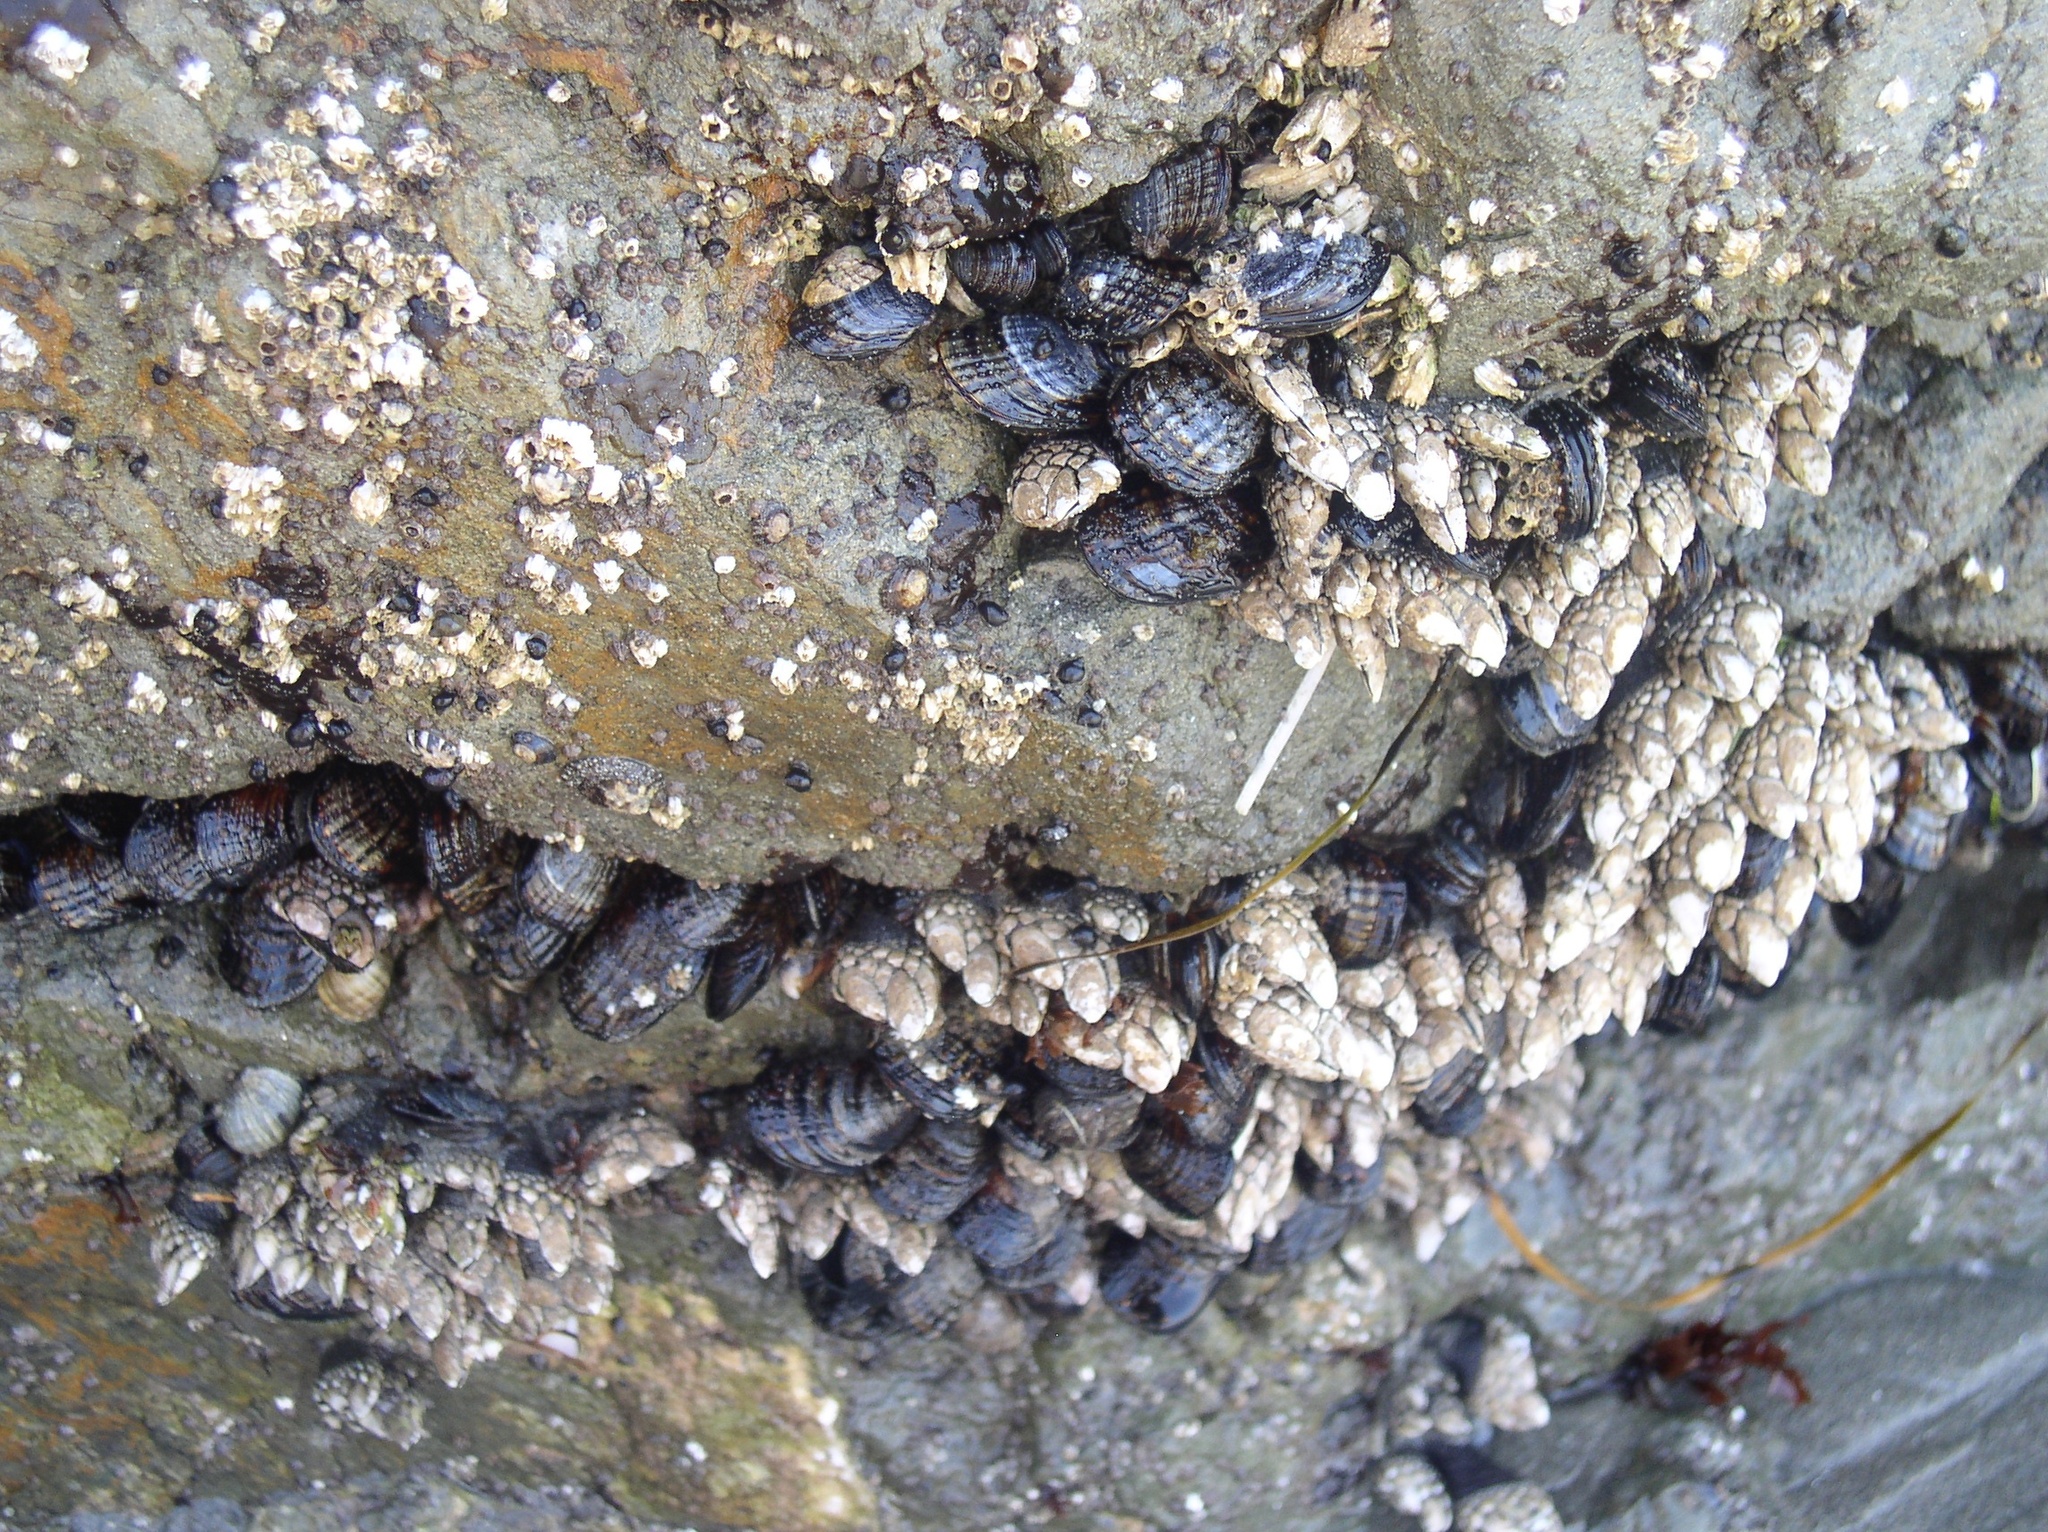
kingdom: Animalia
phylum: Arthropoda
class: Maxillopoda
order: Pedunculata
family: Pollicipedidae
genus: Pollicipes
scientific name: Pollicipes polymerus
